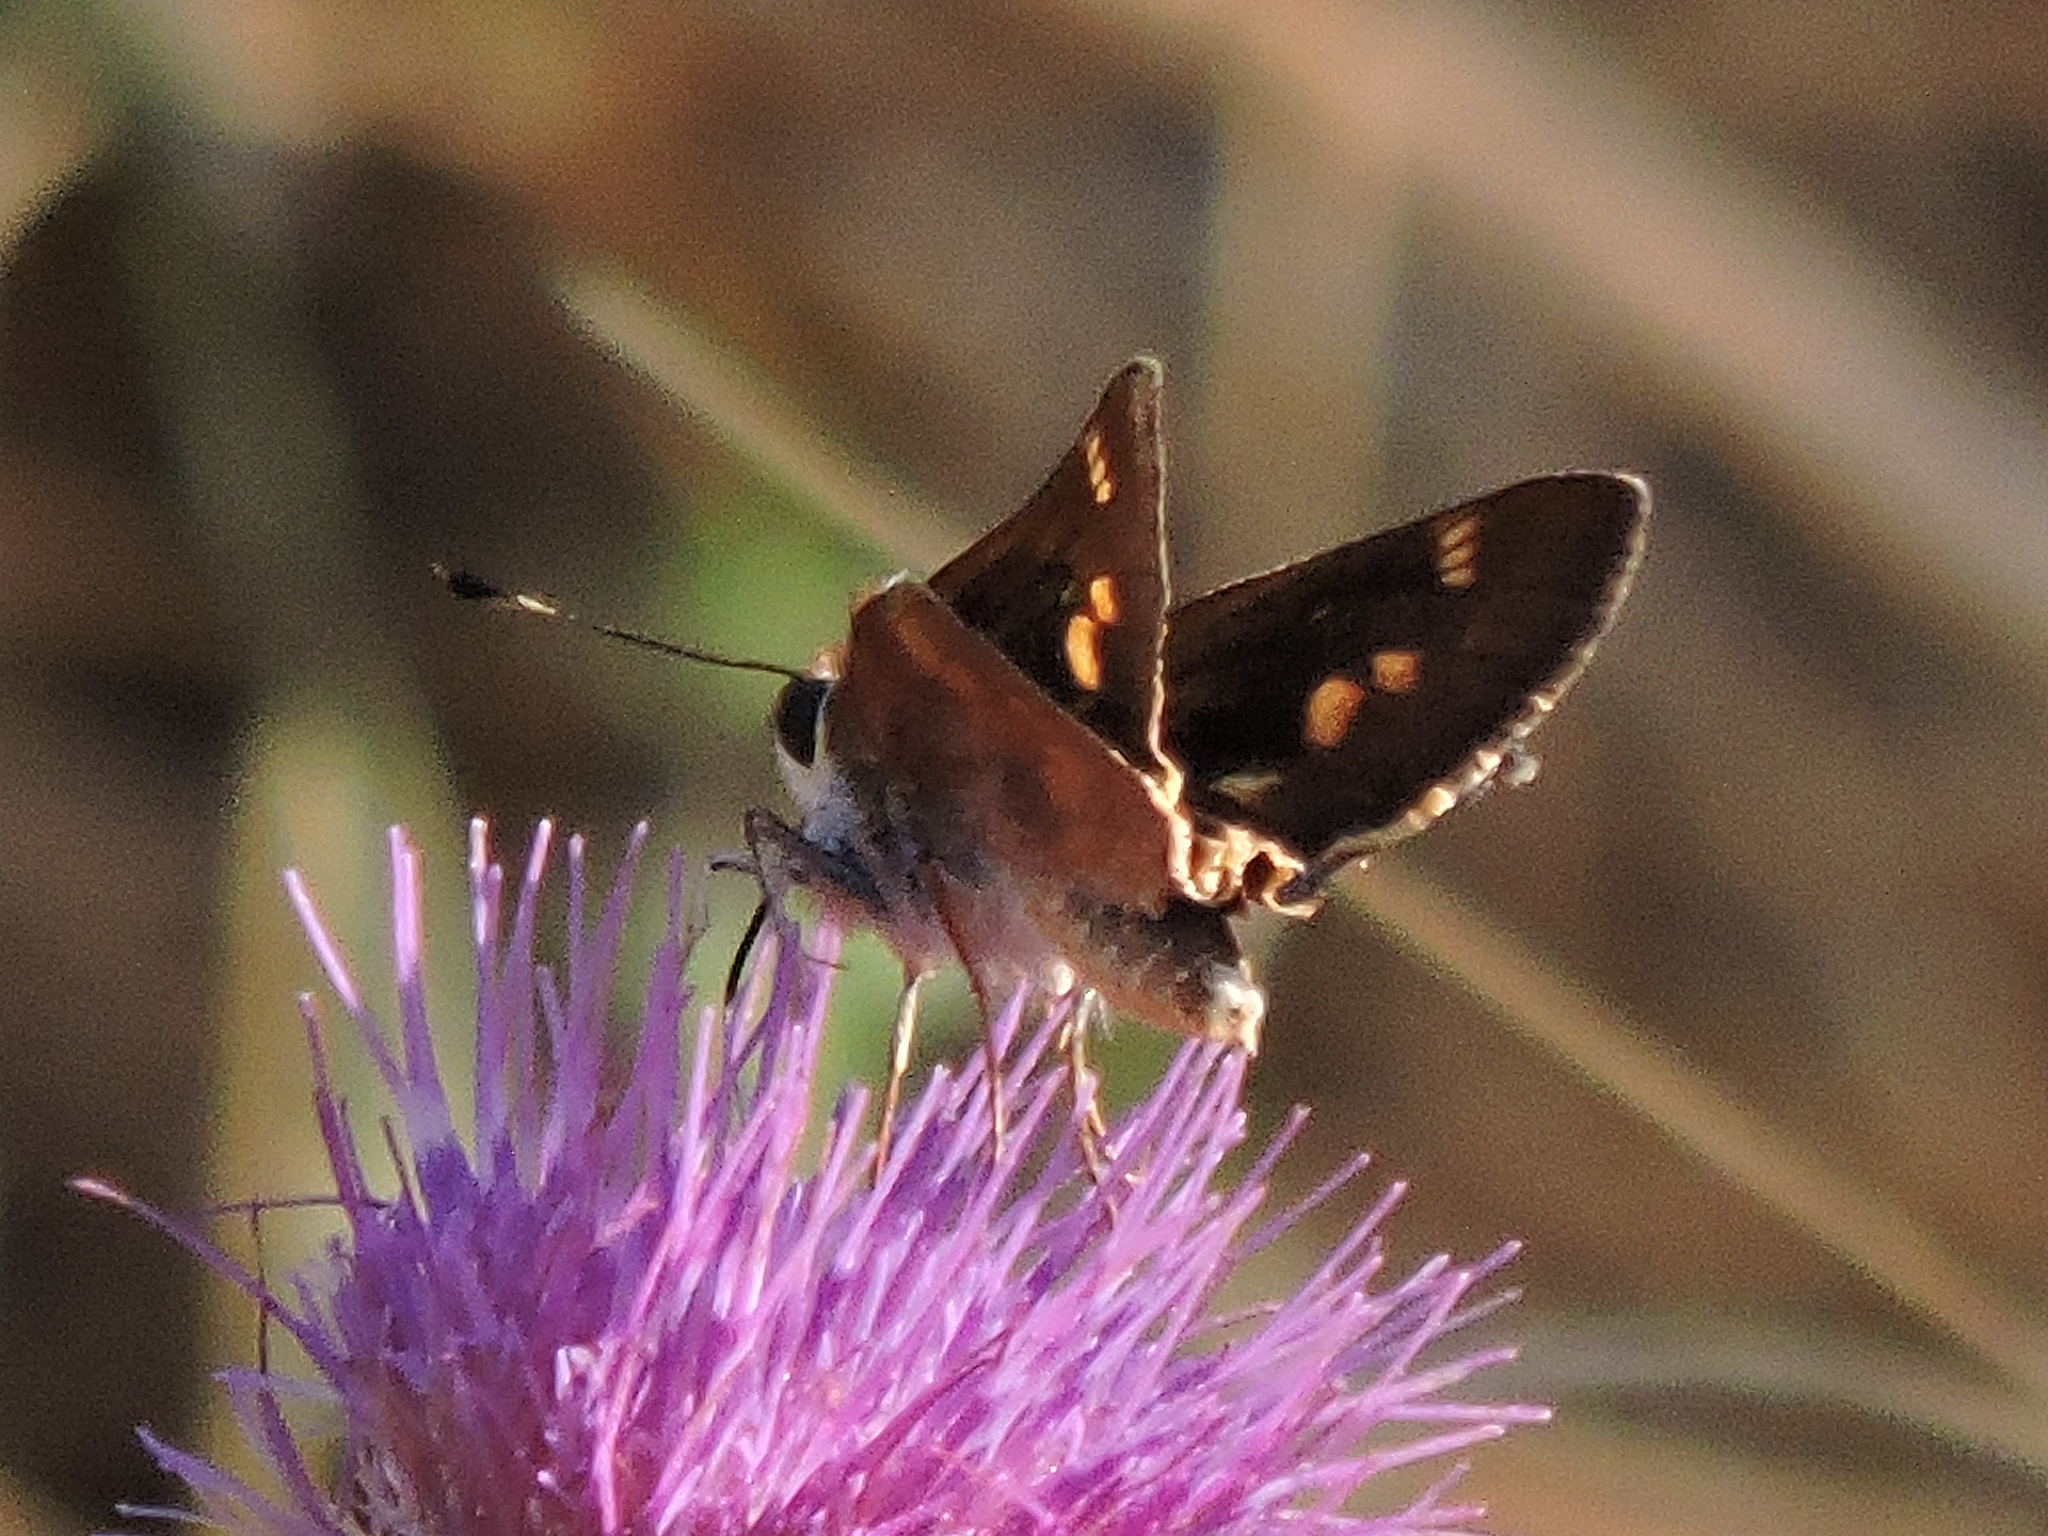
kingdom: Animalia
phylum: Arthropoda
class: Insecta
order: Lepidoptera
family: Hesperiidae
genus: Lon
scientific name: Lon melane
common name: Umber skipper
